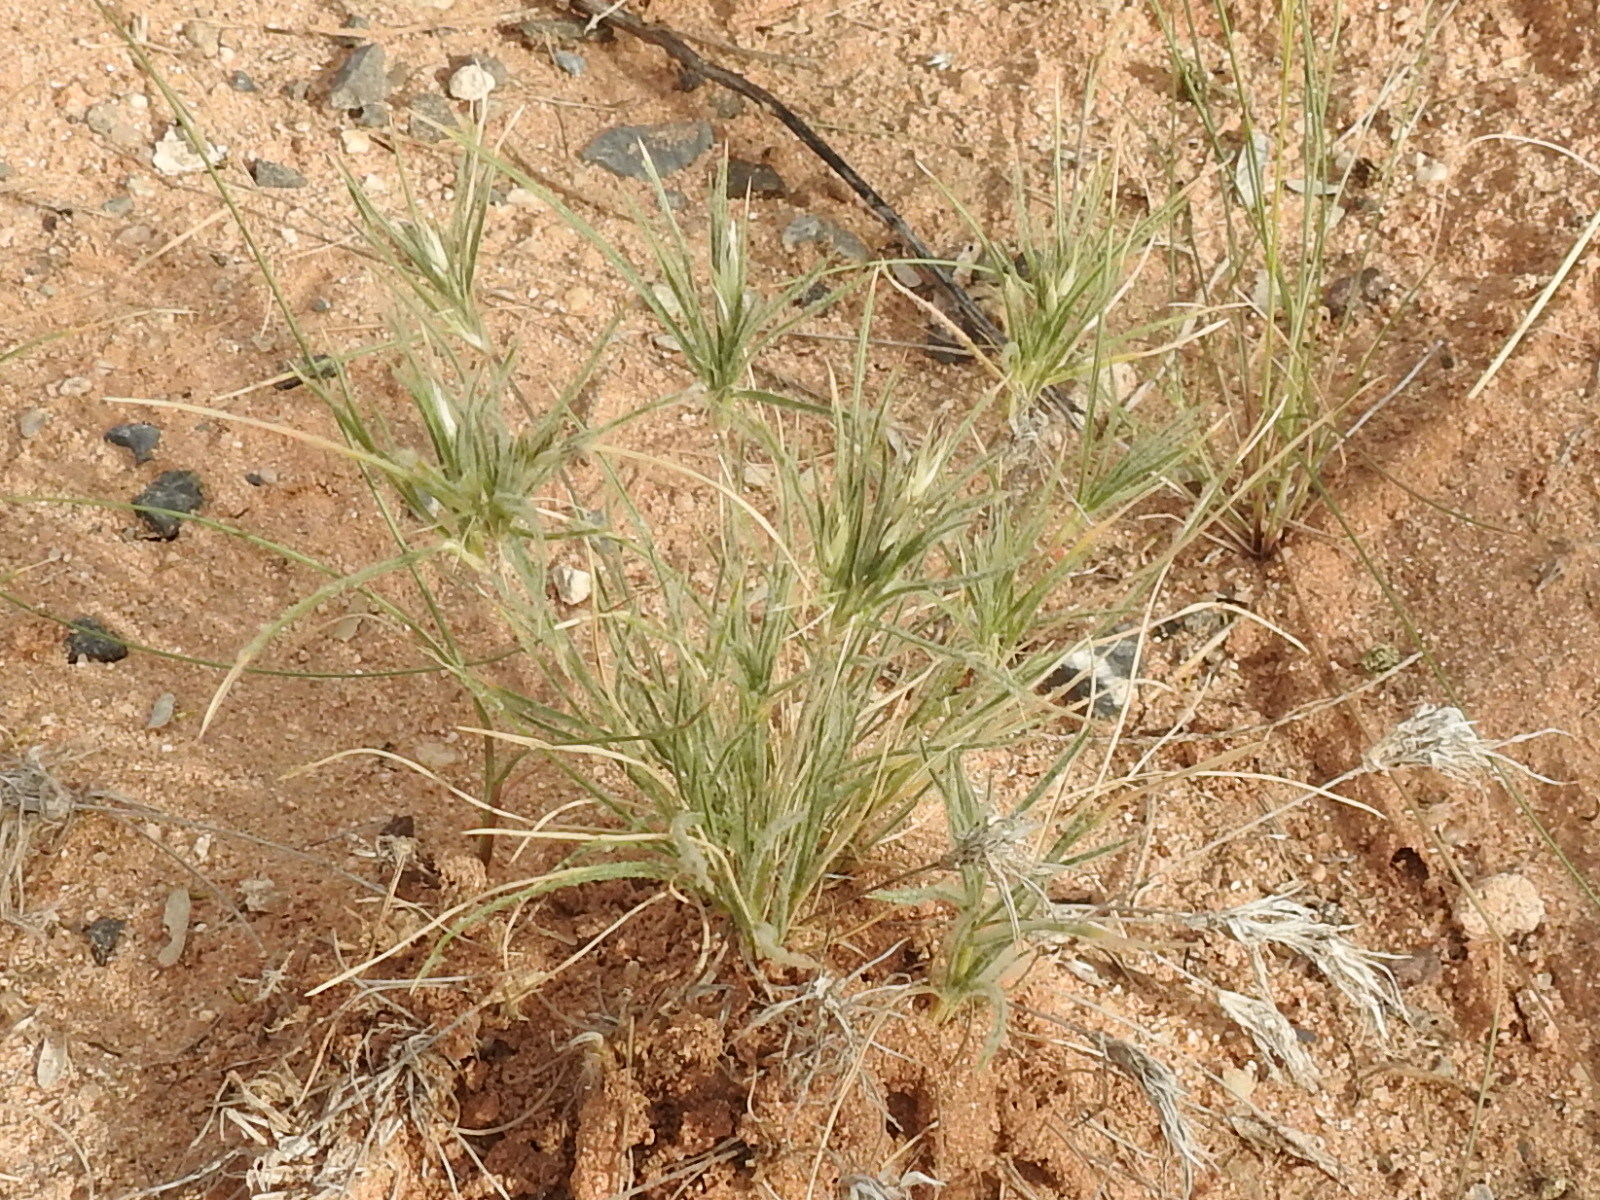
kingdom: Plantae
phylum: Tracheophyta
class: Liliopsida
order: Poales
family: Poaceae
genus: Dasyochloa
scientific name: Dasyochloa pulchella
